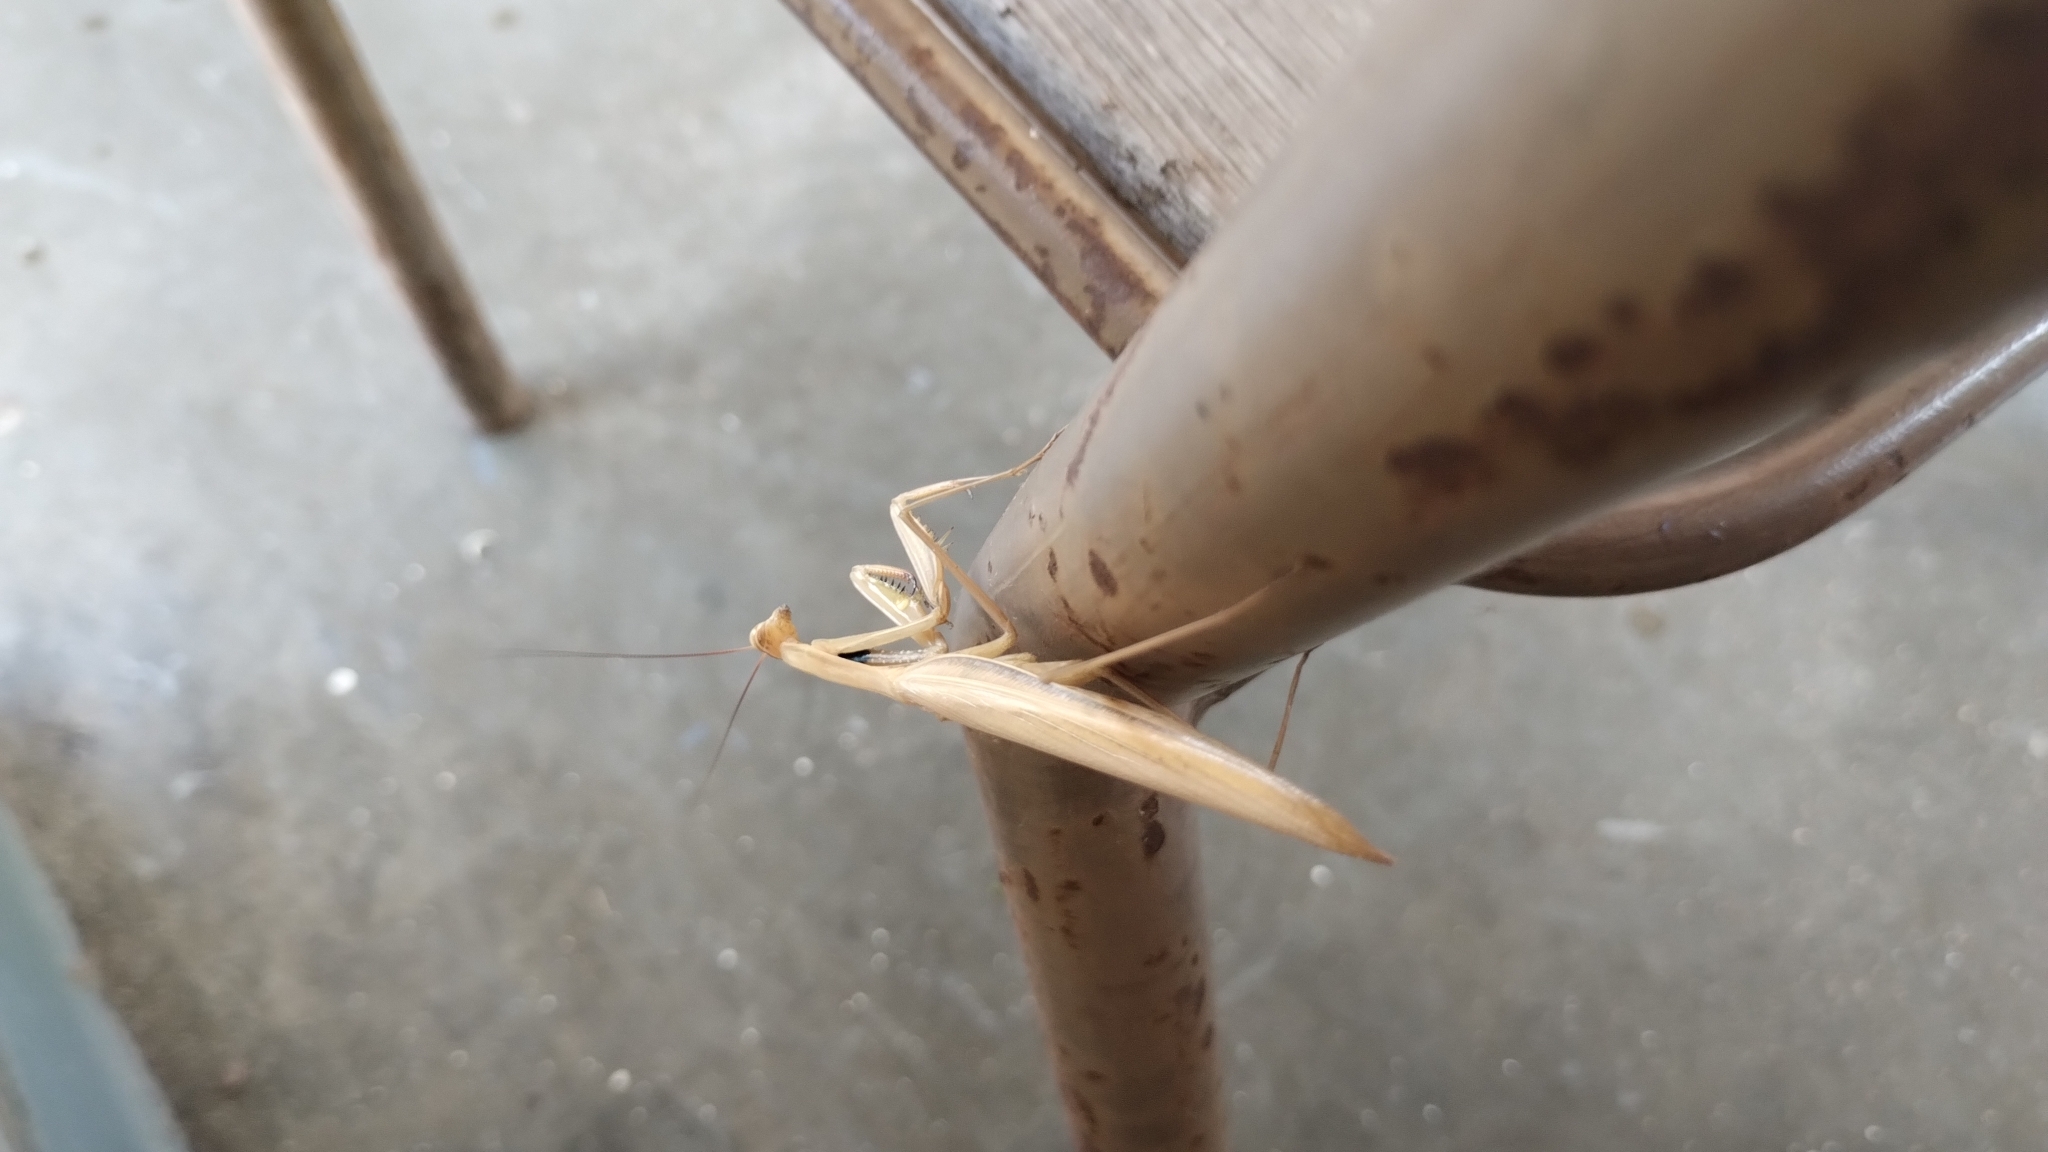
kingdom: Animalia
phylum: Arthropoda
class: Insecta
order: Mantodea
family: Mantidae
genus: Mantis
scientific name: Mantis religiosa
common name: Praying mantis
